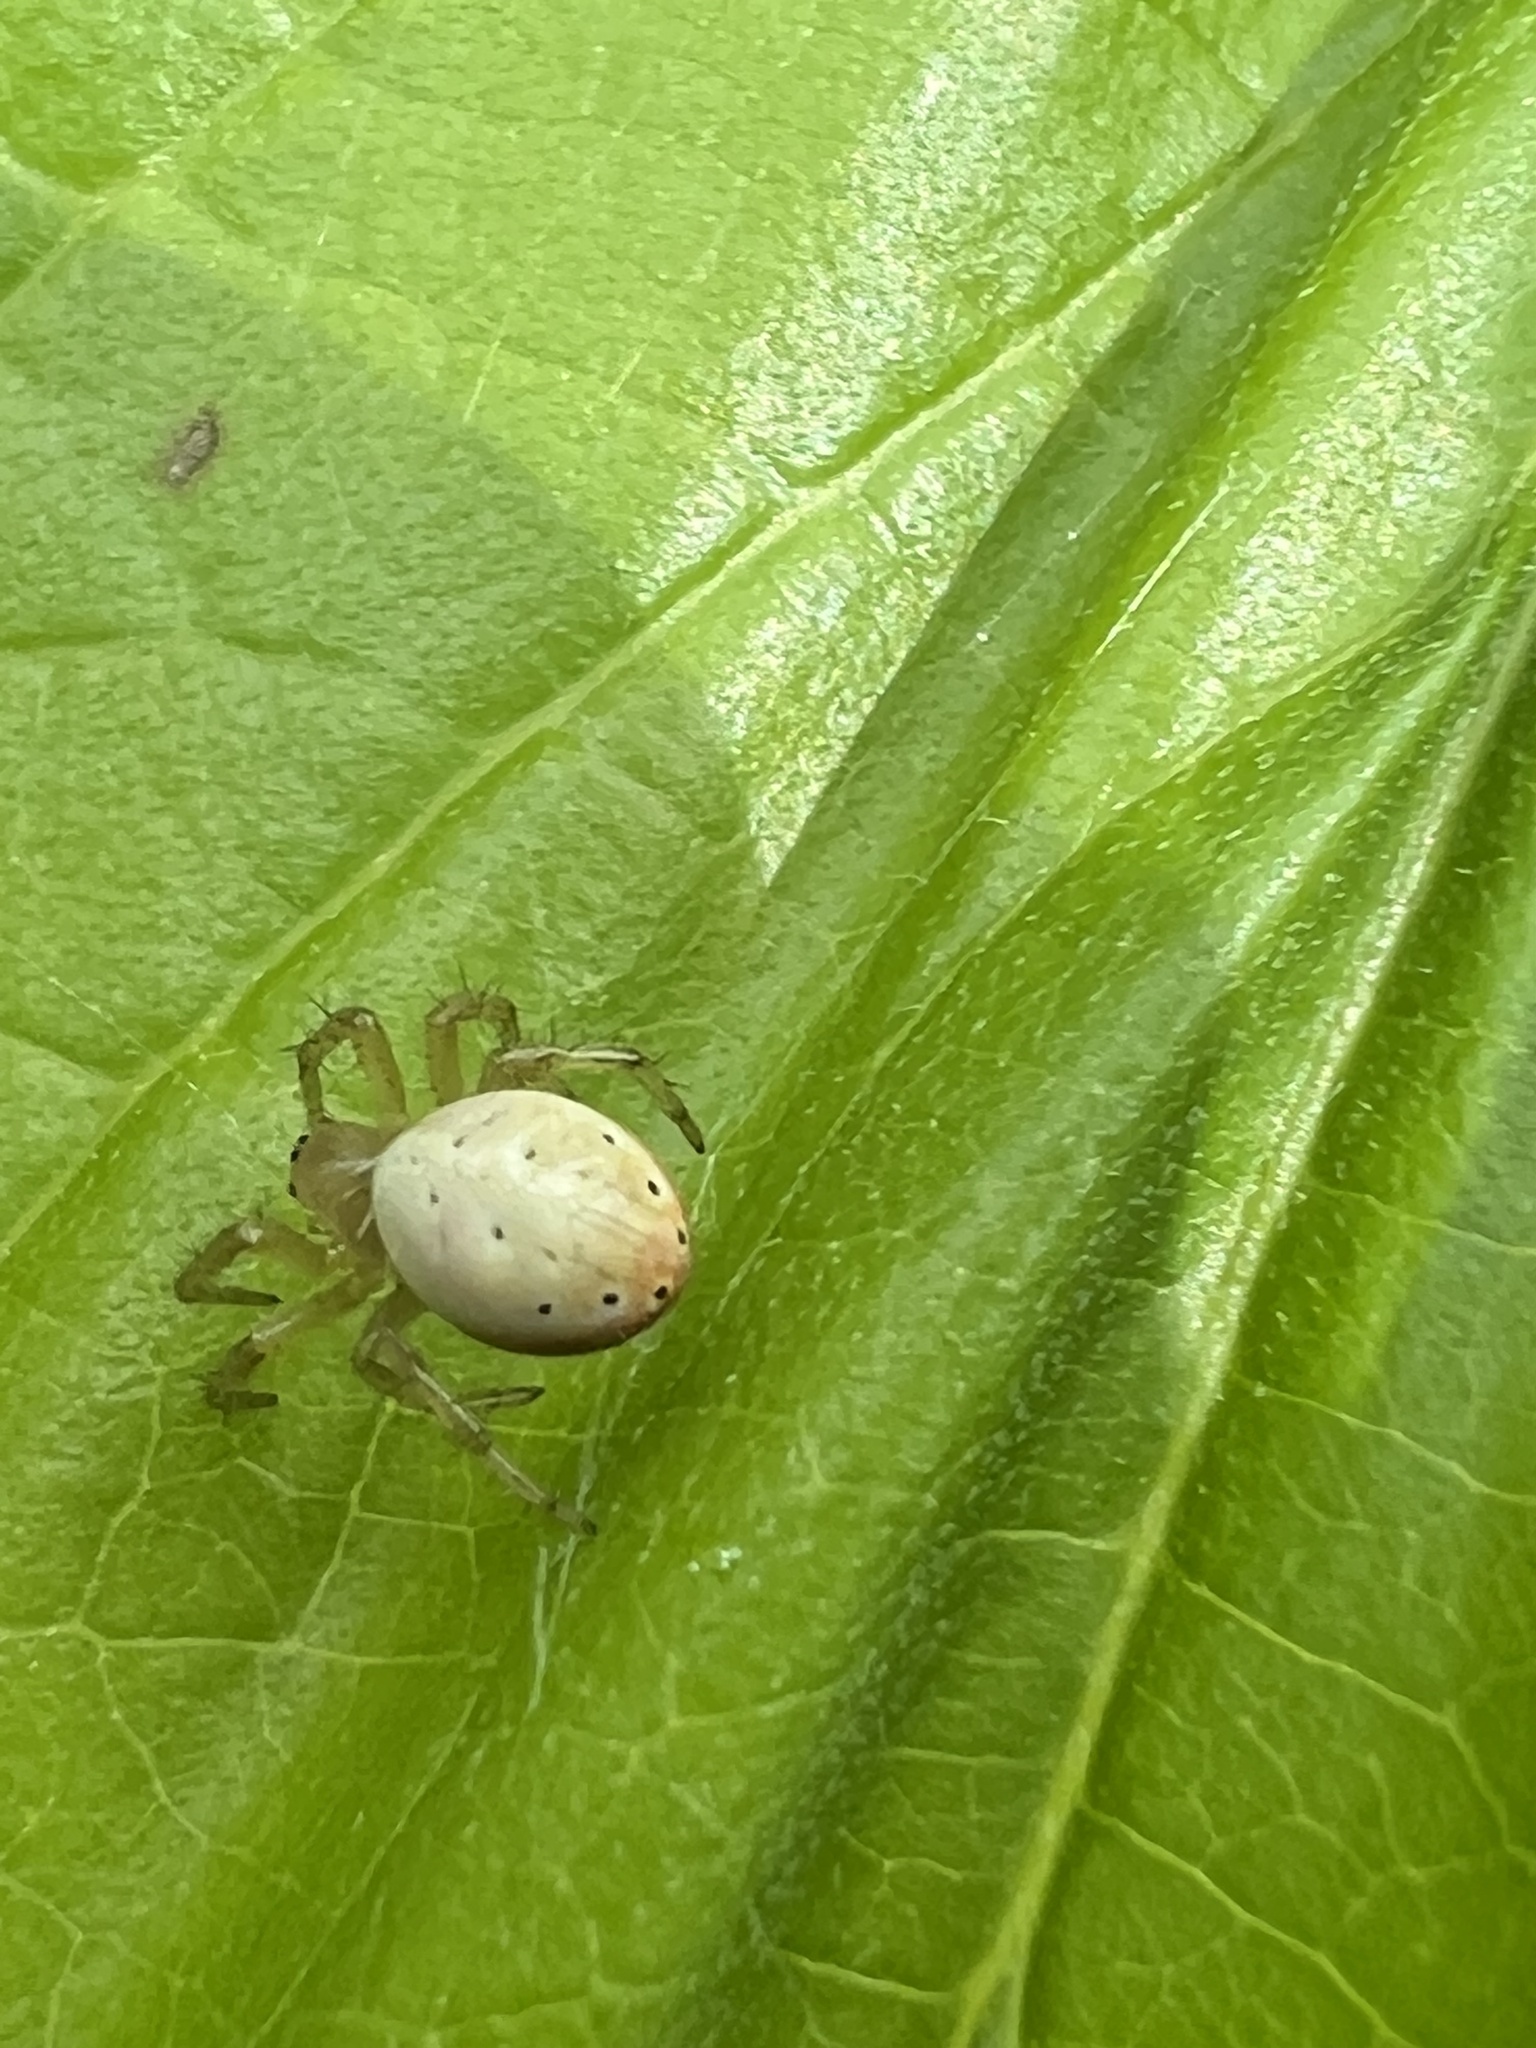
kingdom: Animalia
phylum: Arthropoda
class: Arachnida
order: Araneae
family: Araneidae
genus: Araniella
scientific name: Araniella displicata
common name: Sixspotted orb weaver
